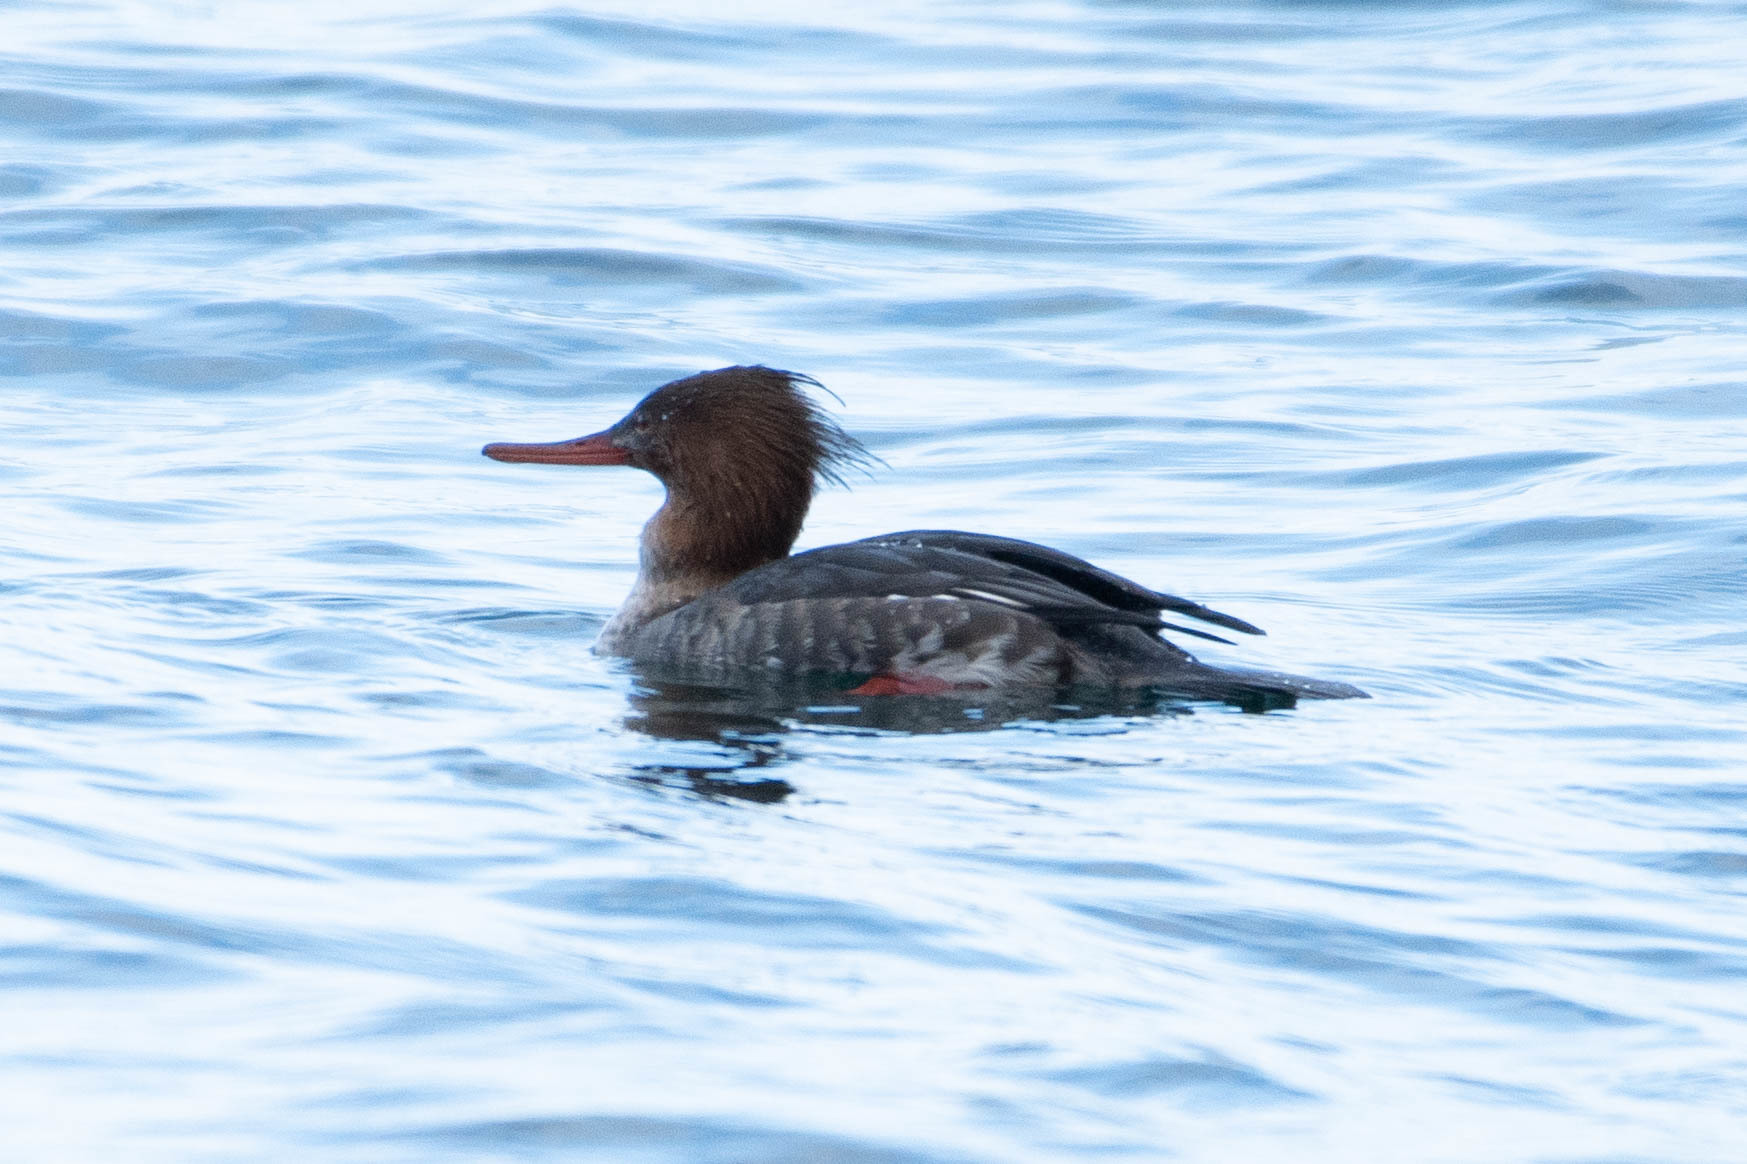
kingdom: Animalia
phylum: Chordata
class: Aves
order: Anseriformes
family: Anatidae
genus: Mergus
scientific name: Mergus serrator
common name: Red-breasted merganser
